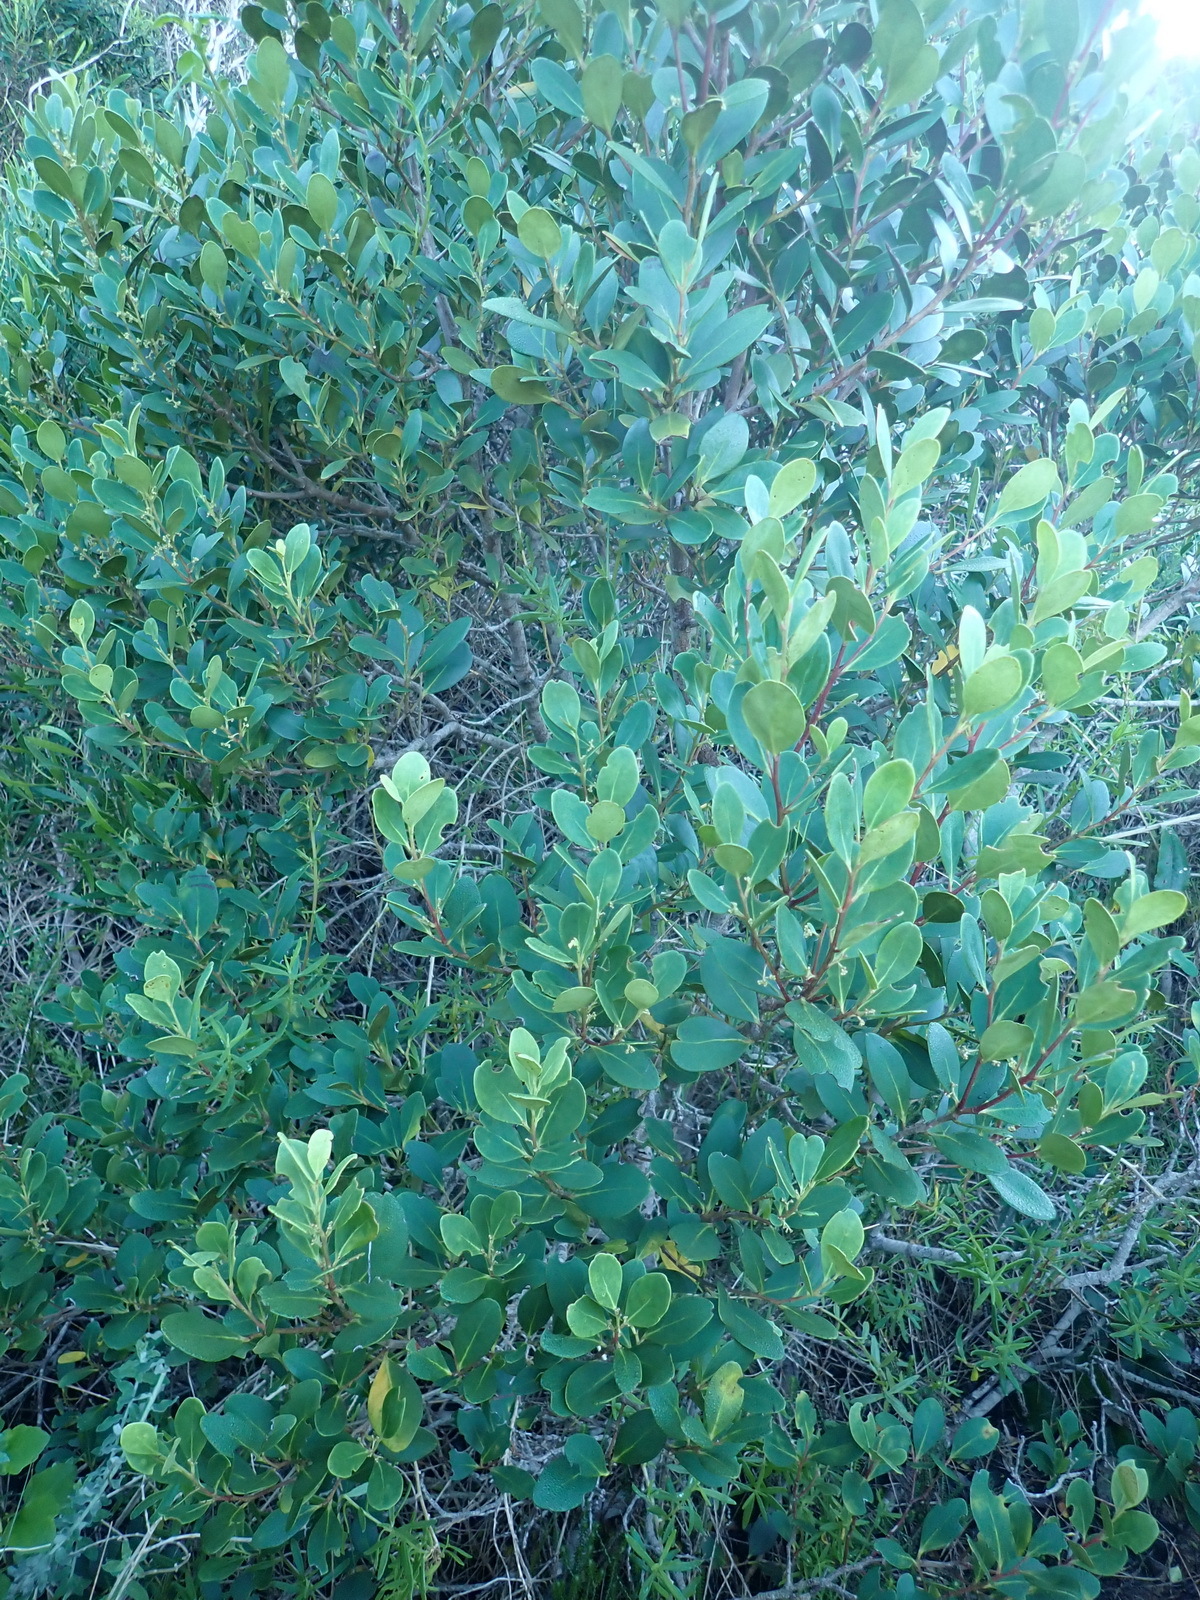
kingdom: Plantae
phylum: Tracheophyta
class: Magnoliopsida
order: Celastrales
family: Celastraceae
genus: Pterocelastrus
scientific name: Pterocelastrus tricuspidatus
